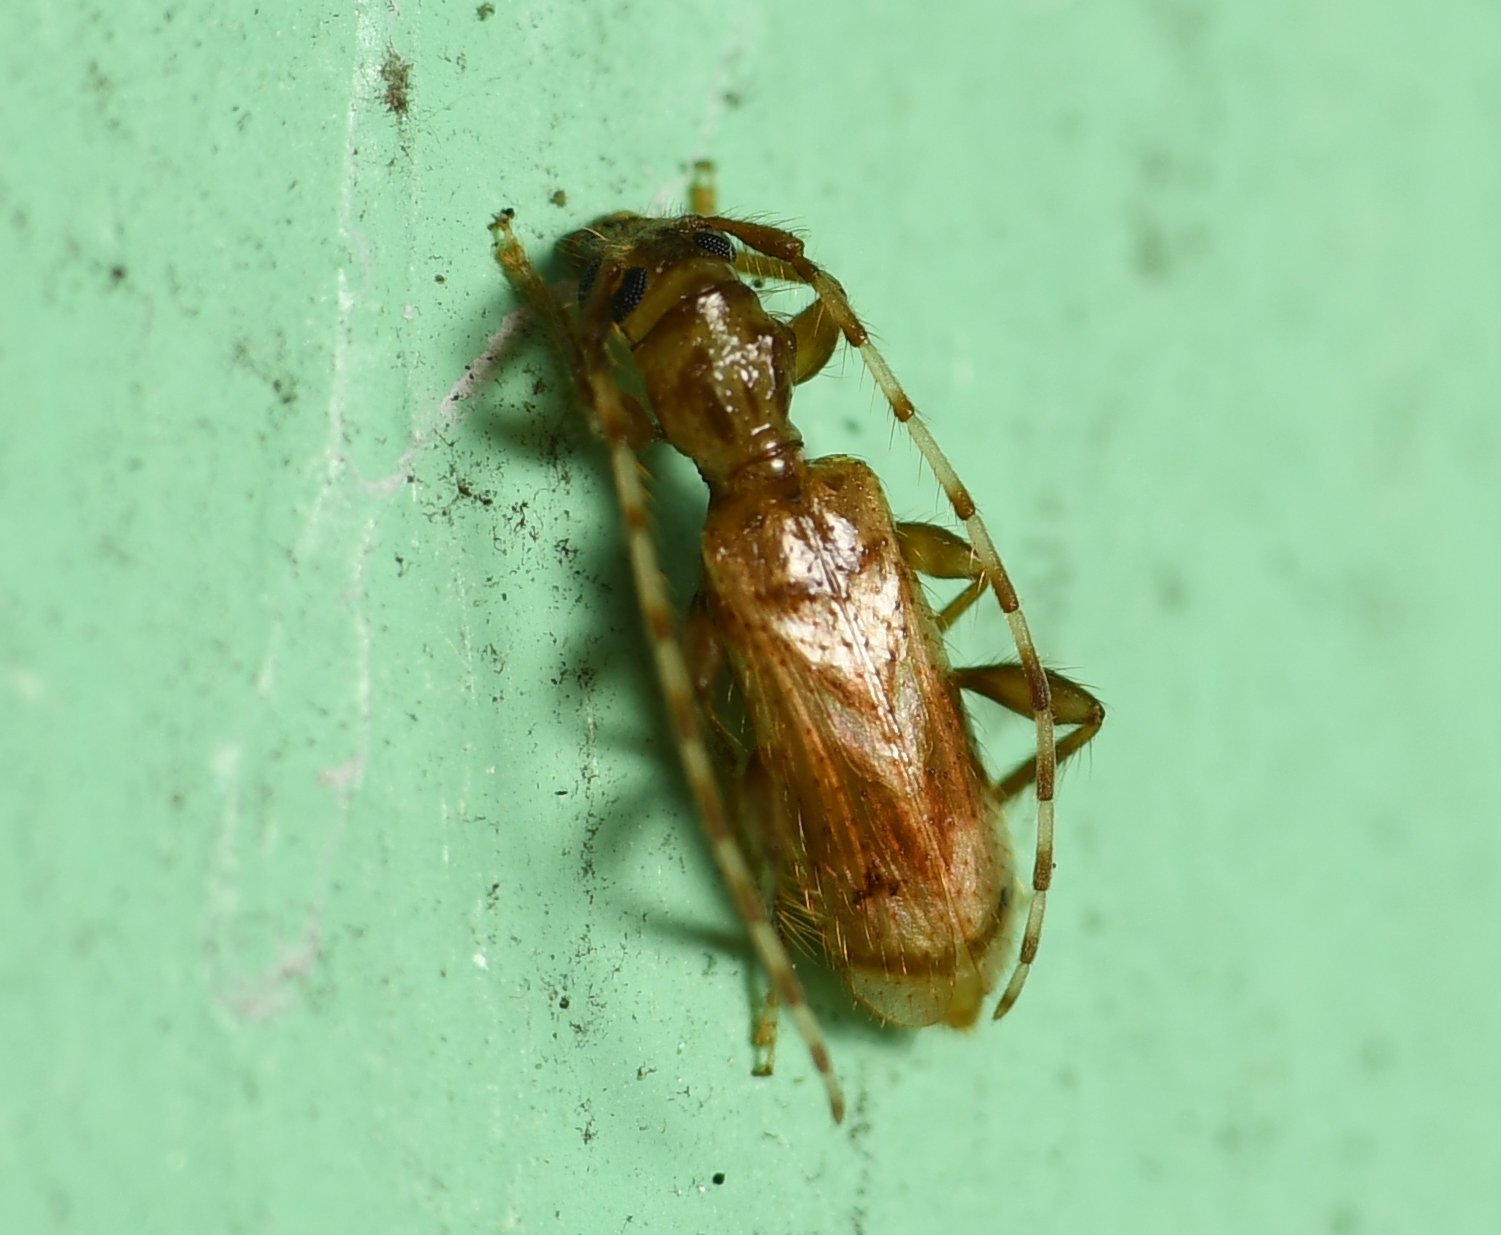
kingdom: Animalia
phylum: Arthropoda
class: Insecta
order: Coleoptera
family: Cerambycidae
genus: Obrium
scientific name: Obrium maculatum
